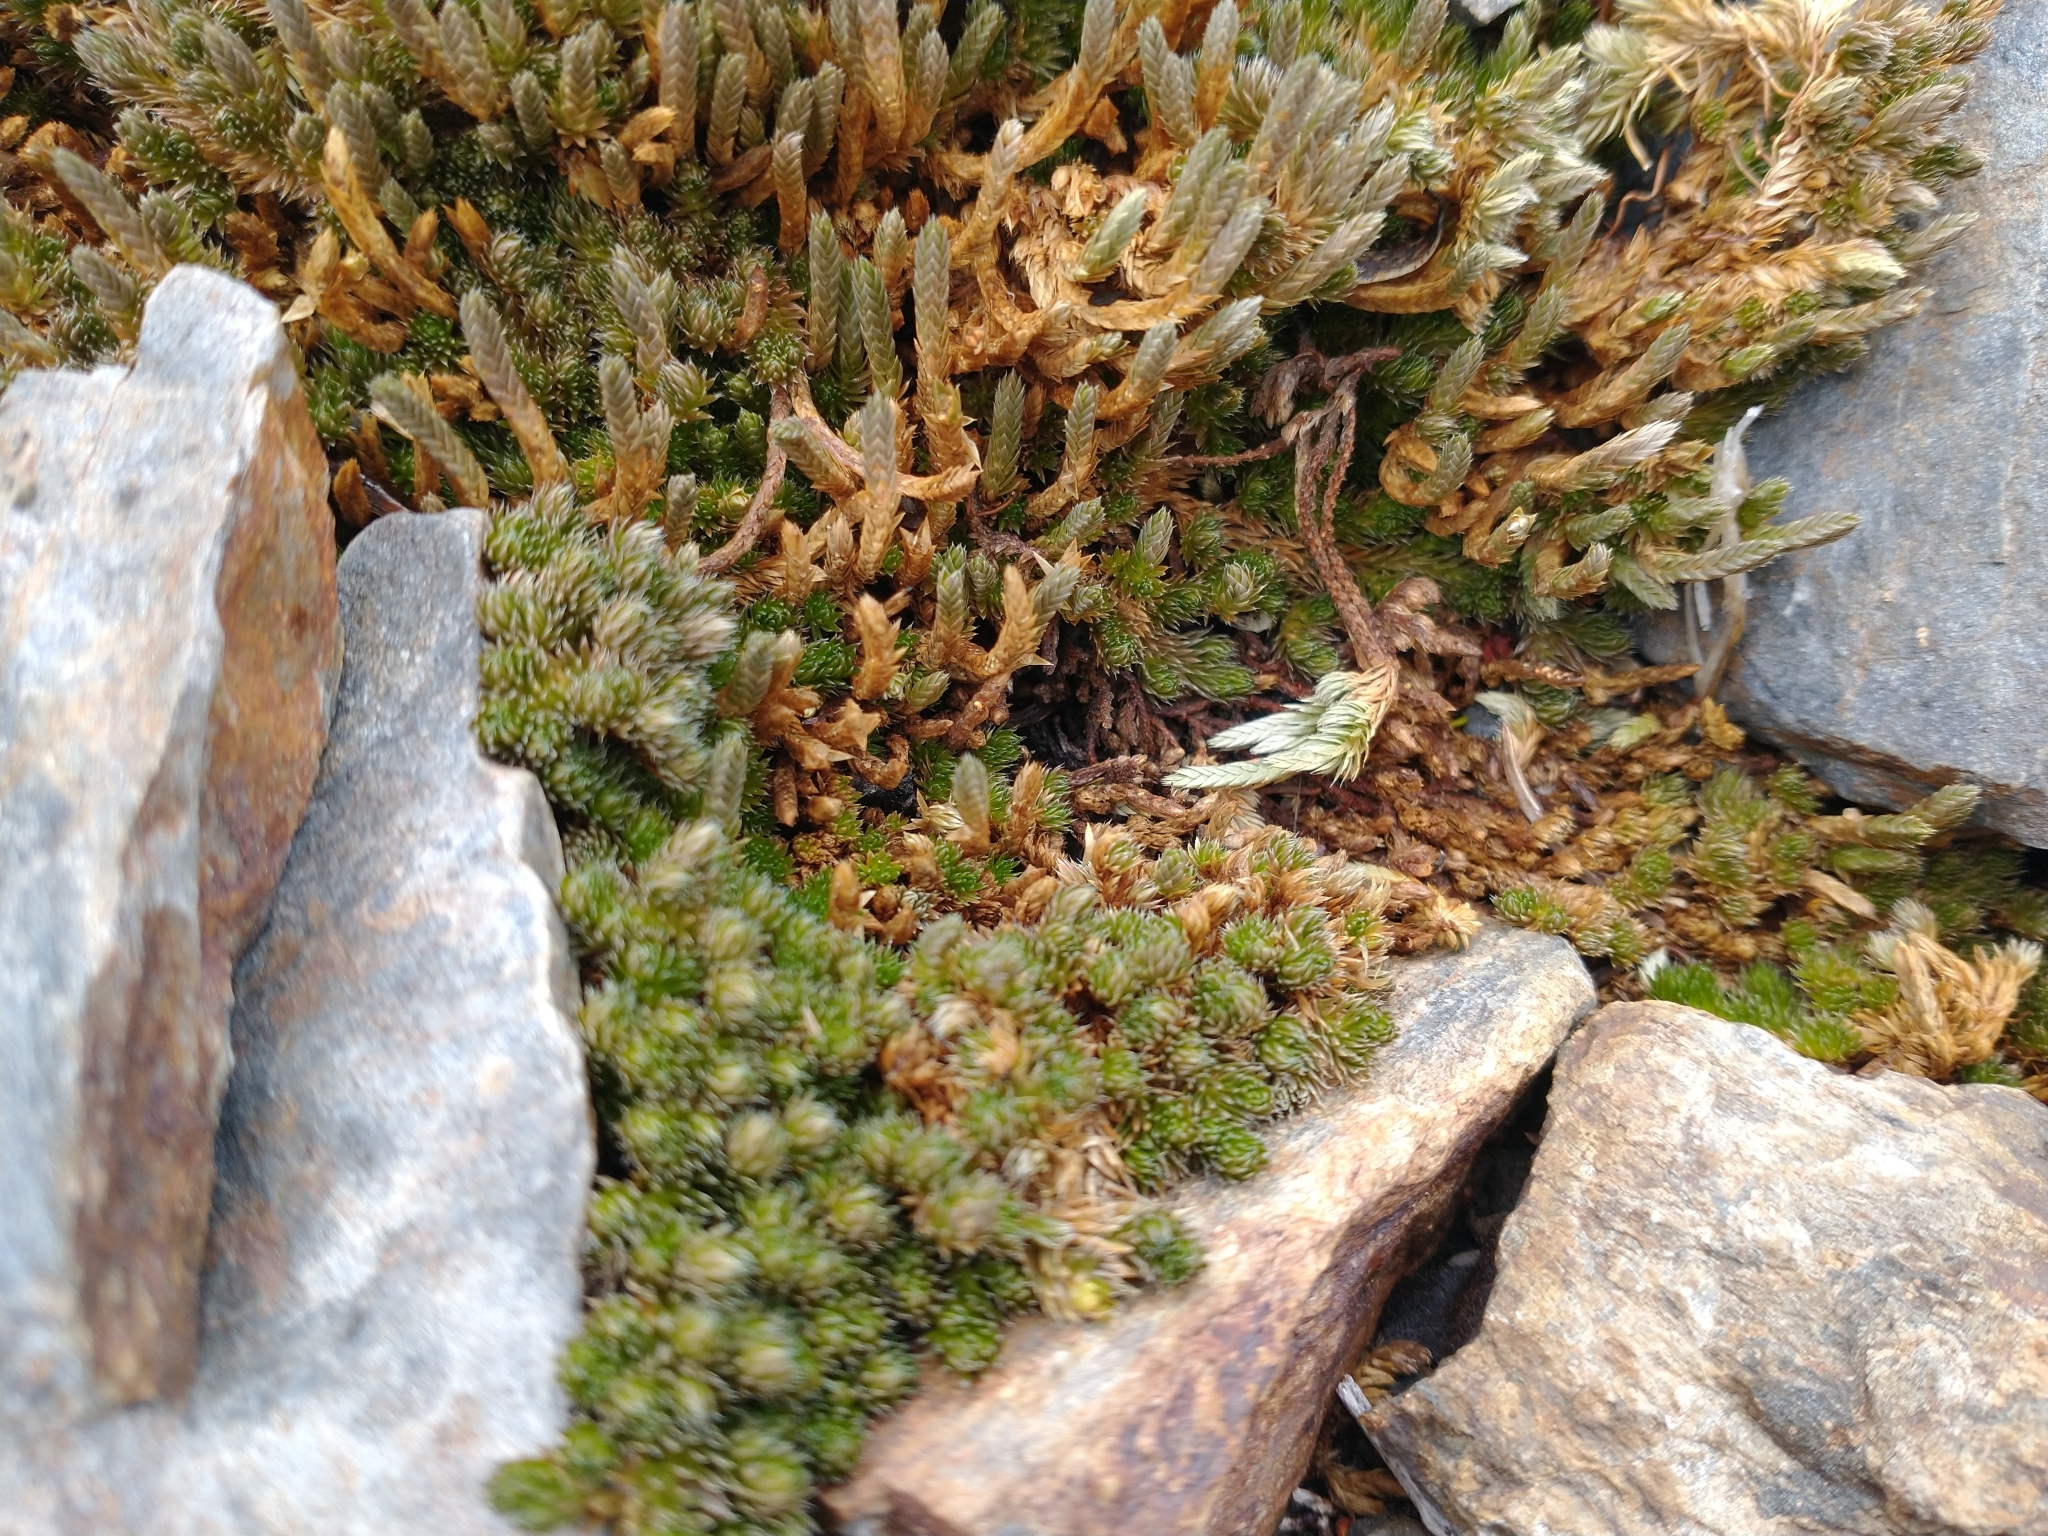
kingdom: Plantae
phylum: Tracheophyta
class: Lycopodiopsida
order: Selaginellales
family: Selaginellaceae
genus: Selaginella
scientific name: Selaginella densa
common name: Mountain spike-moss
